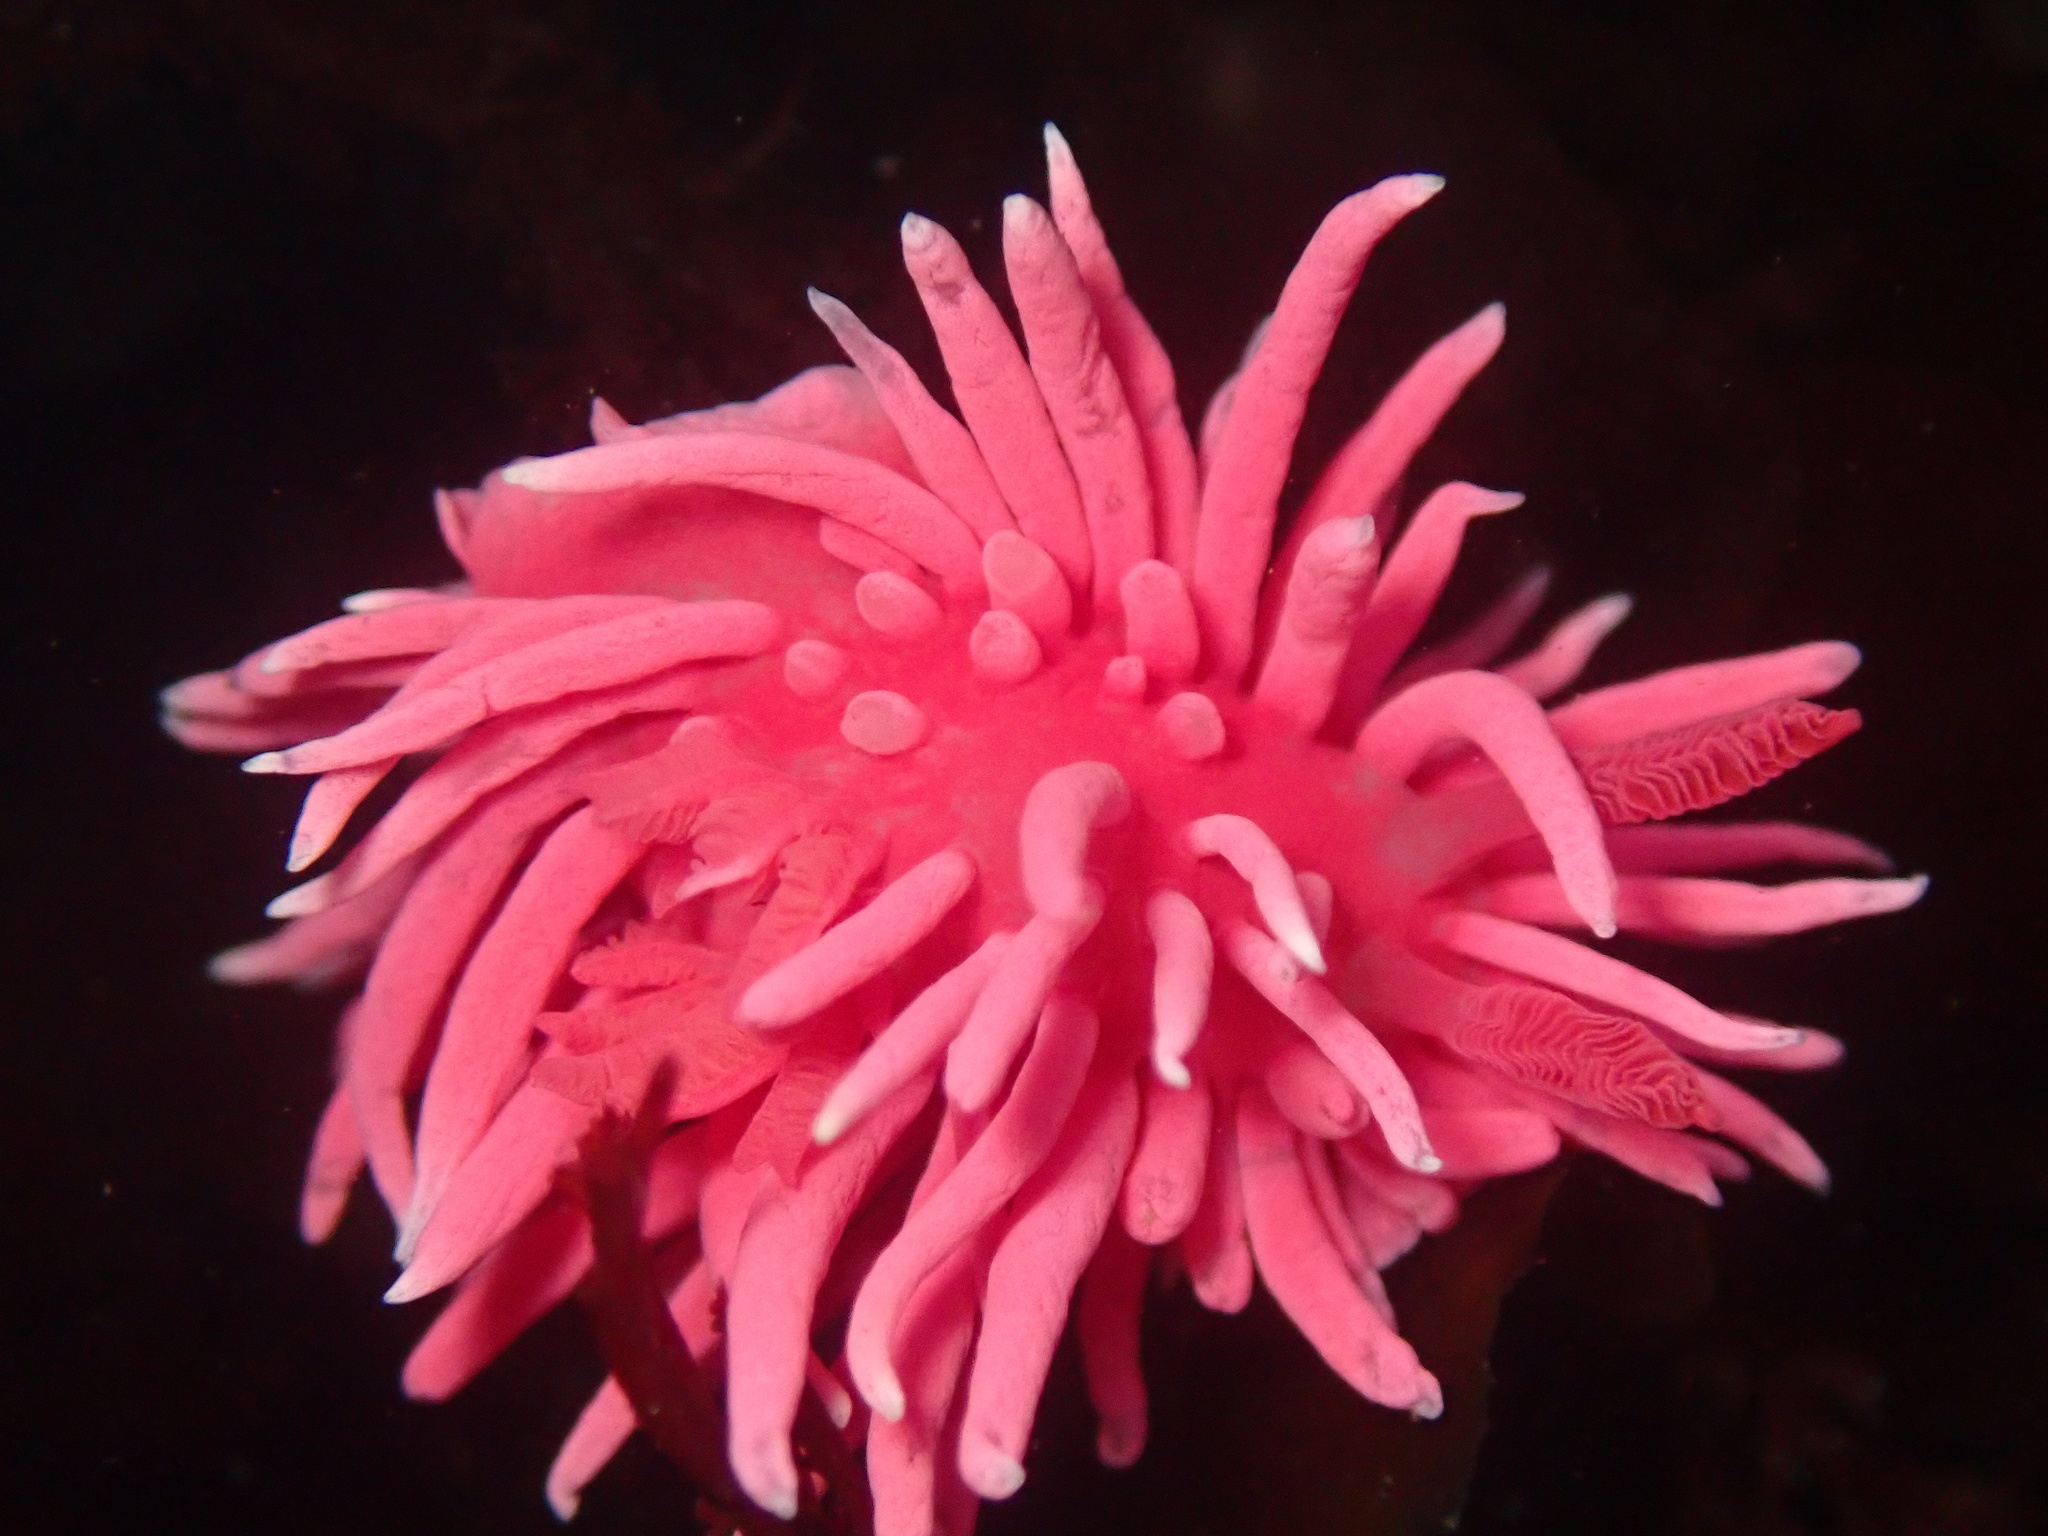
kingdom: Animalia
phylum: Mollusca
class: Gastropoda
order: Nudibranchia
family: Goniodorididae
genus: Okenia
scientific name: Okenia
